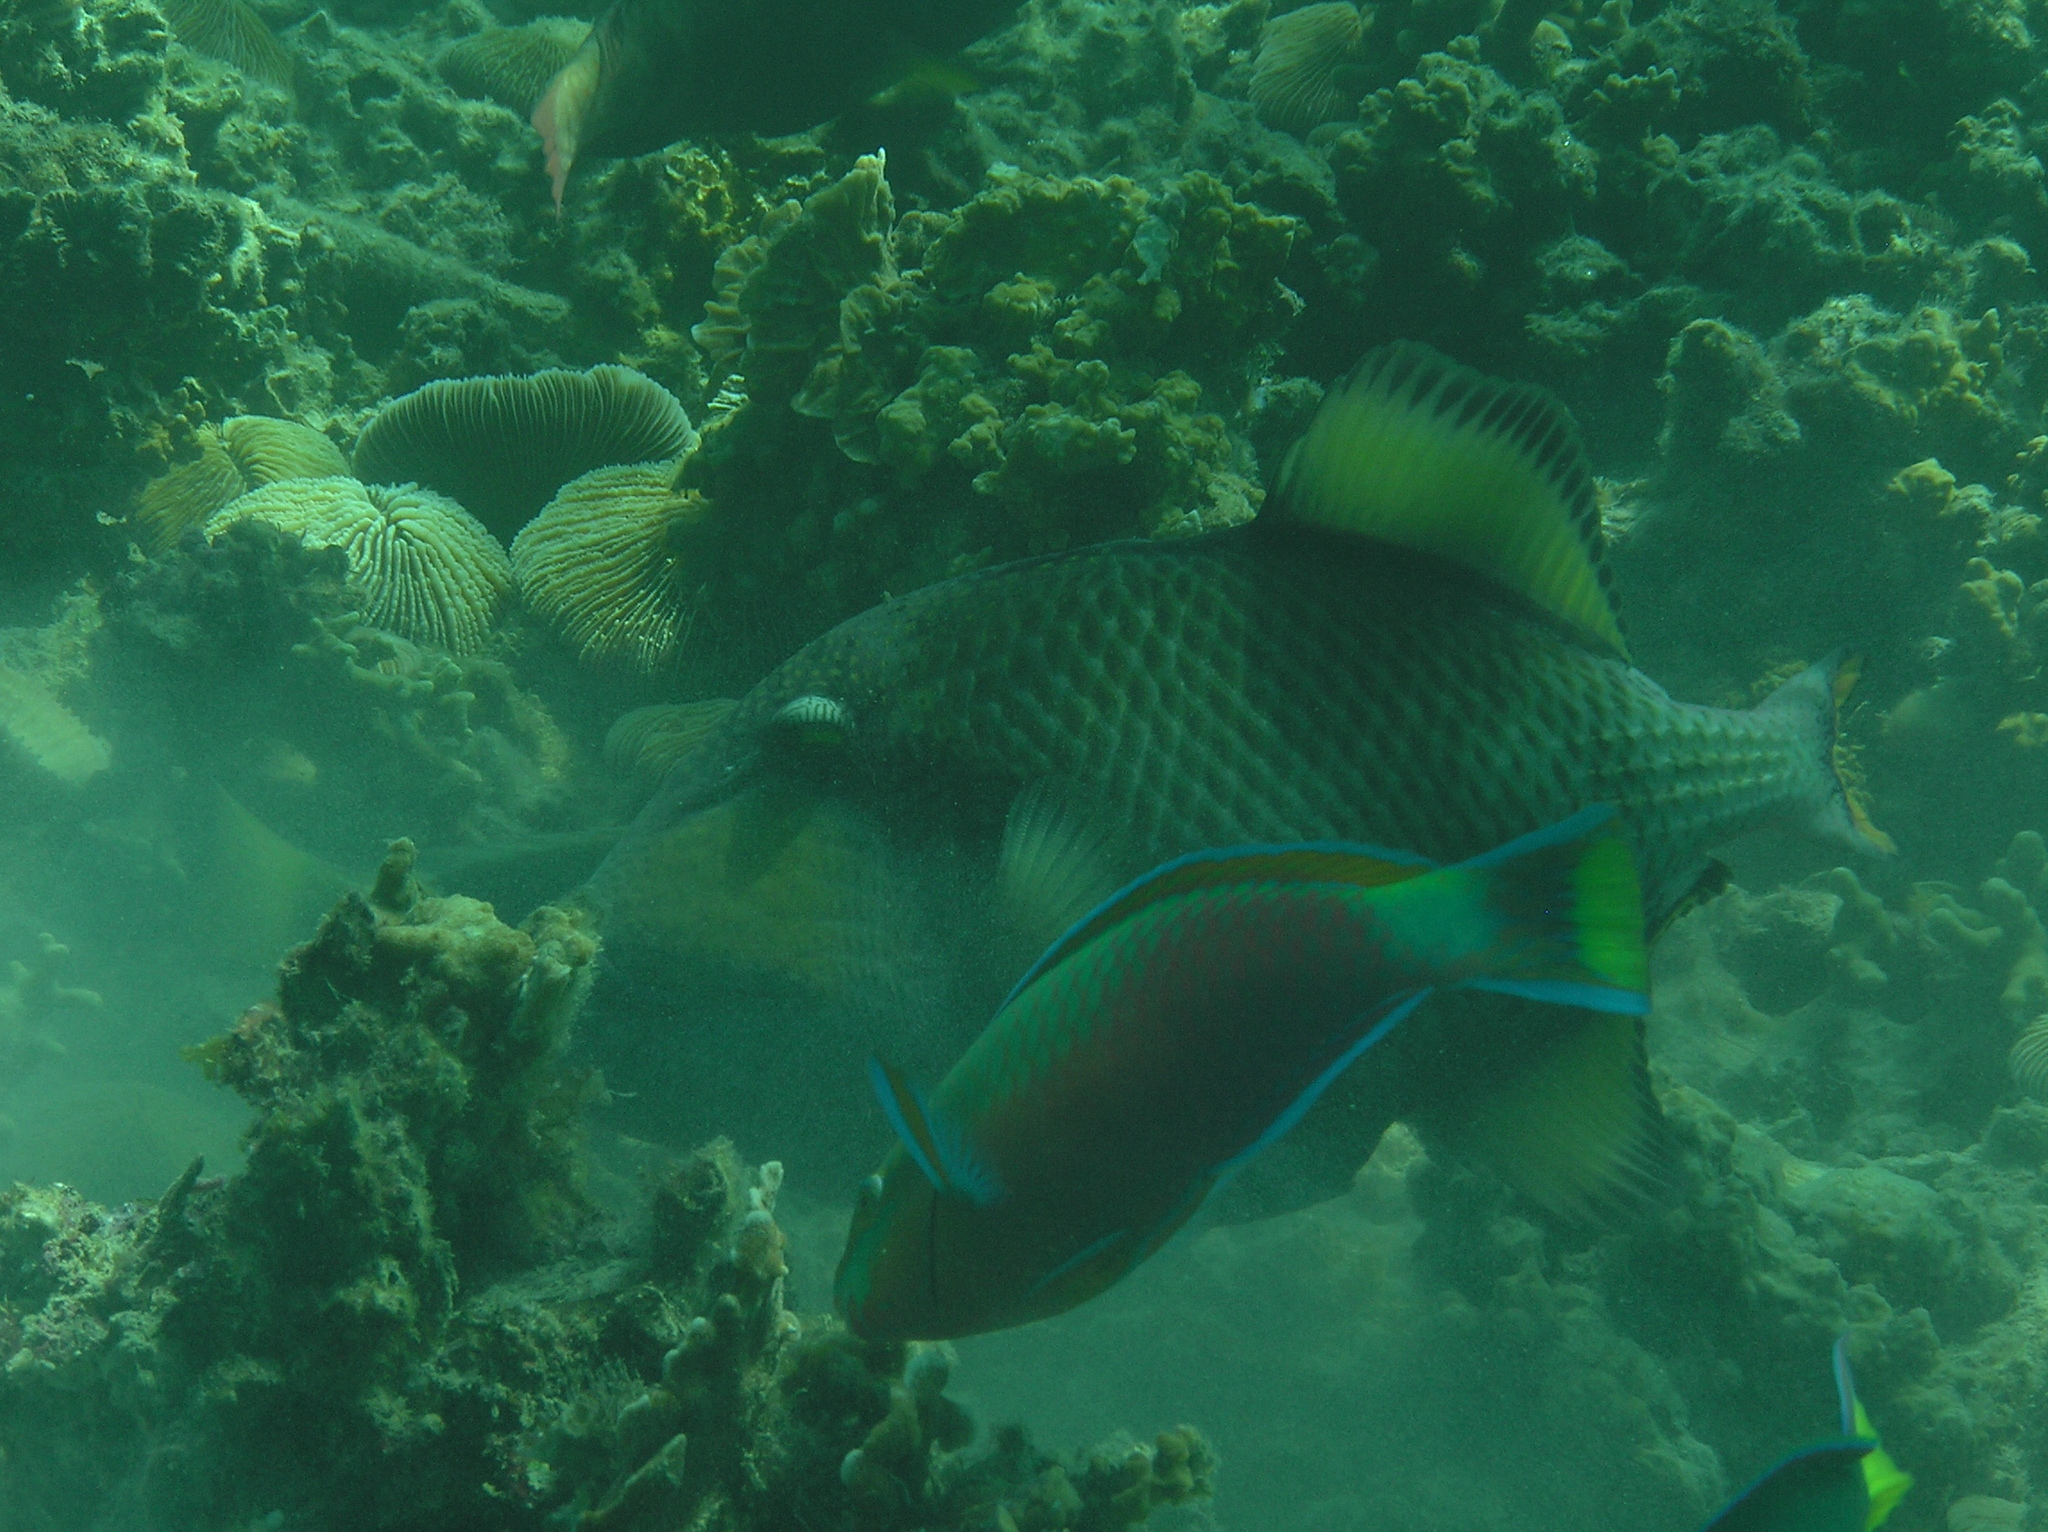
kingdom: Animalia
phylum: Chordata
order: Tetraodontiformes
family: Balistidae
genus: Balistoides
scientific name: Balistoides viridescens
